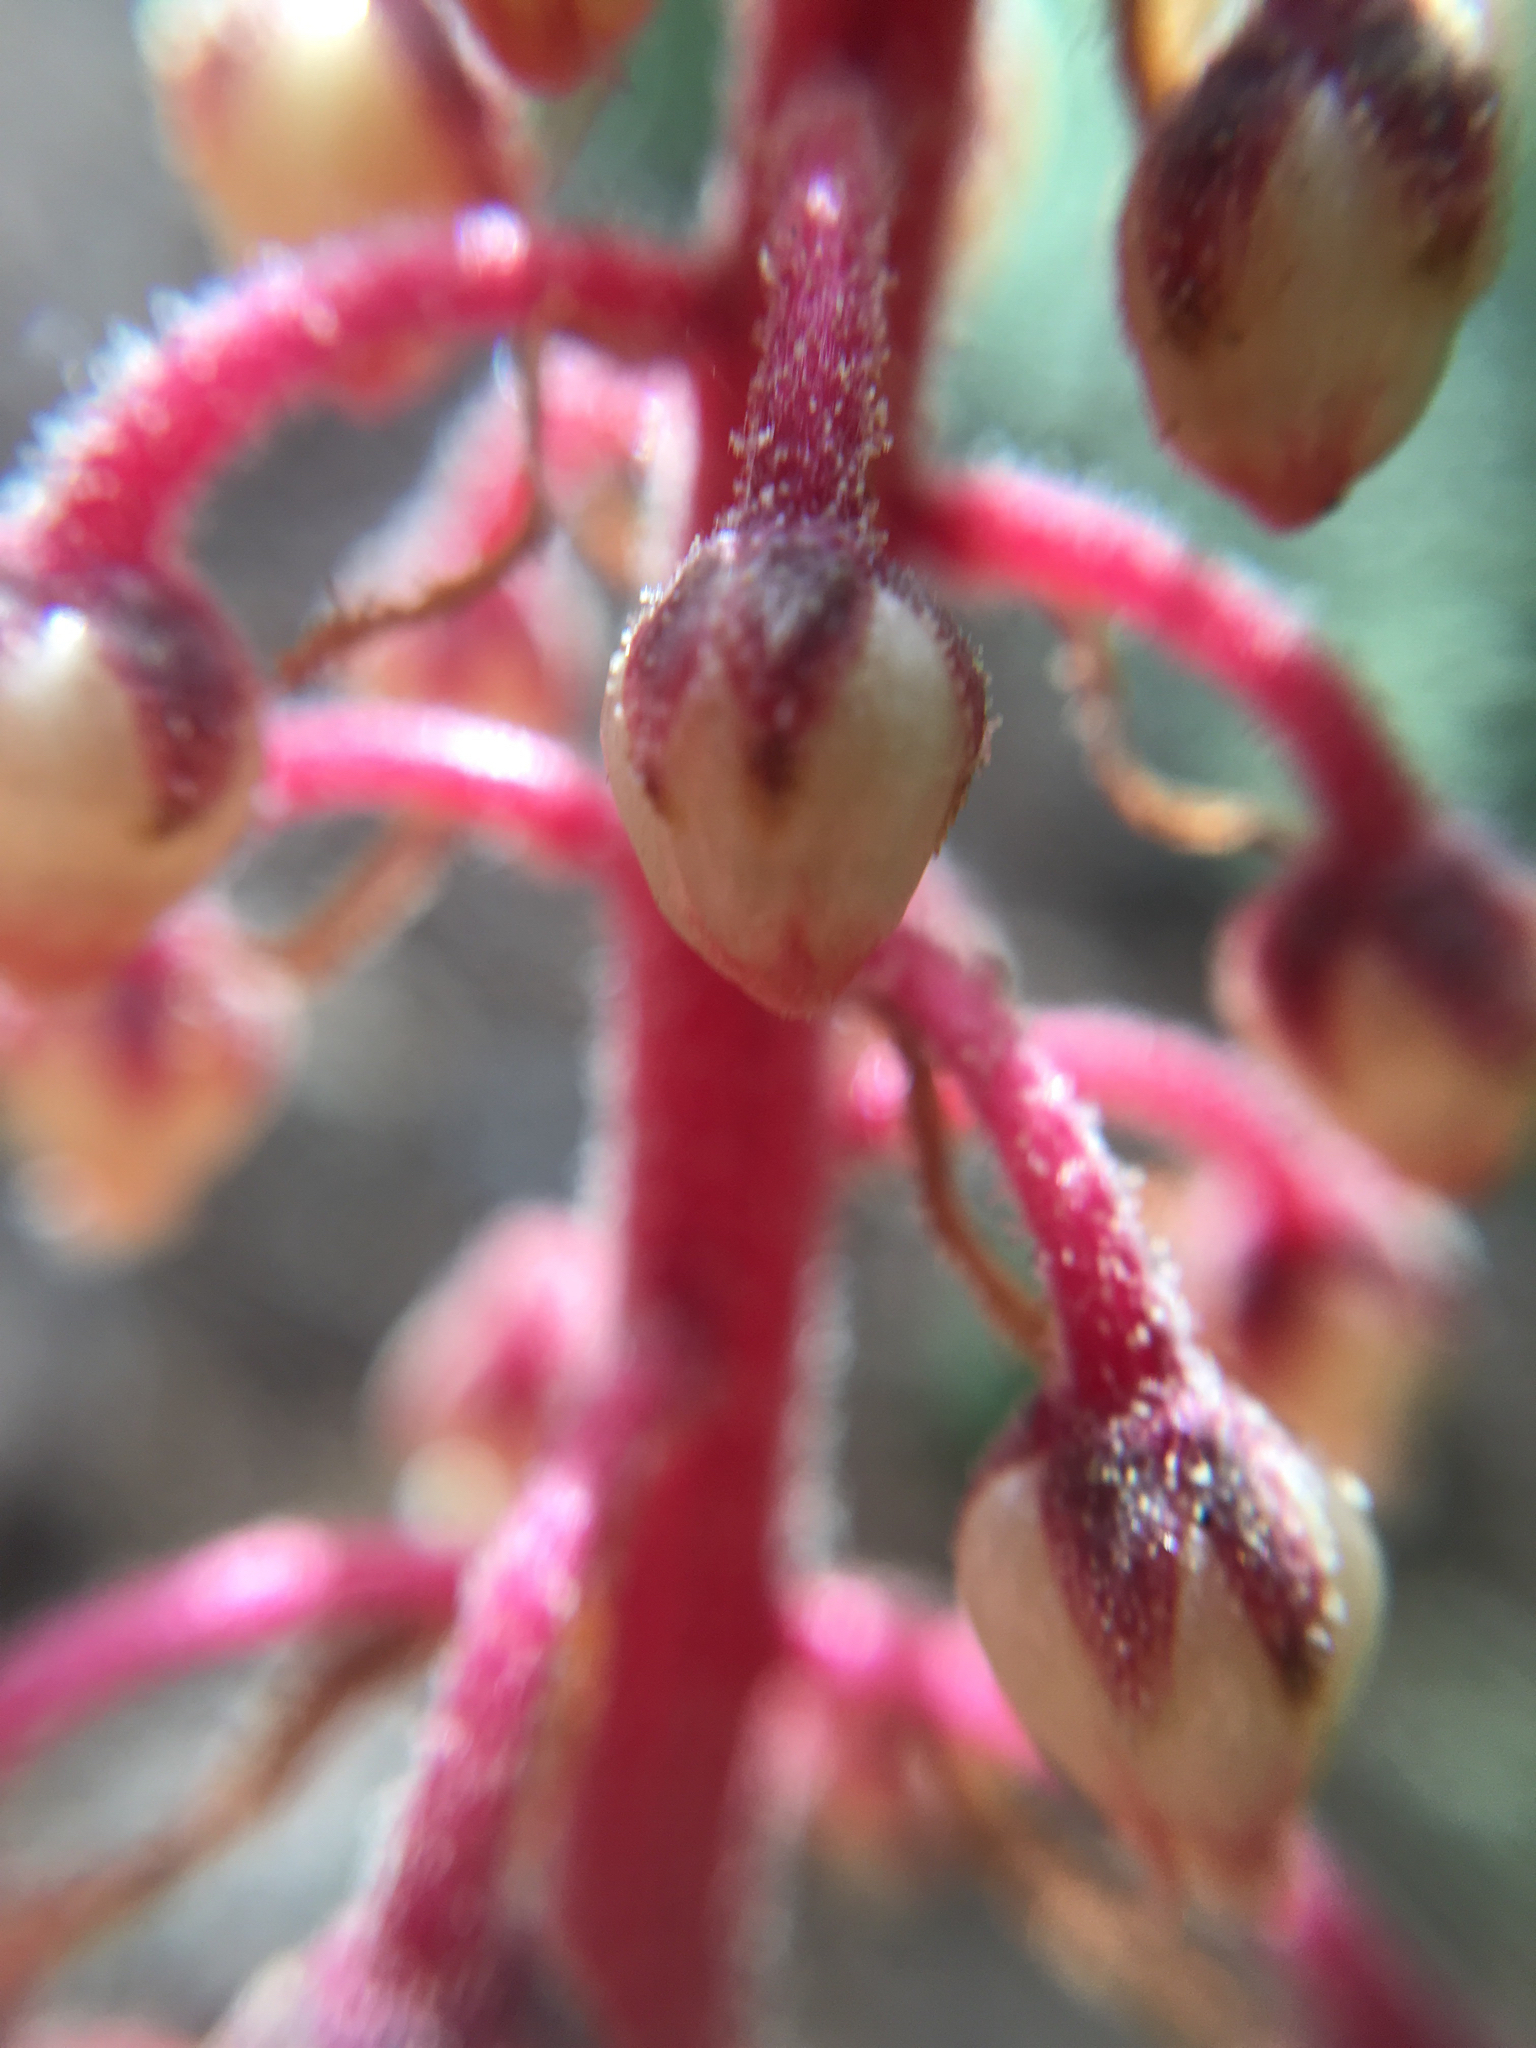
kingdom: Plantae
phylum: Tracheophyta
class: Magnoliopsida
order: Ericales
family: Ericaceae
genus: Pterospora
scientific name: Pterospora andromedea
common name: Giant bird's-nest
